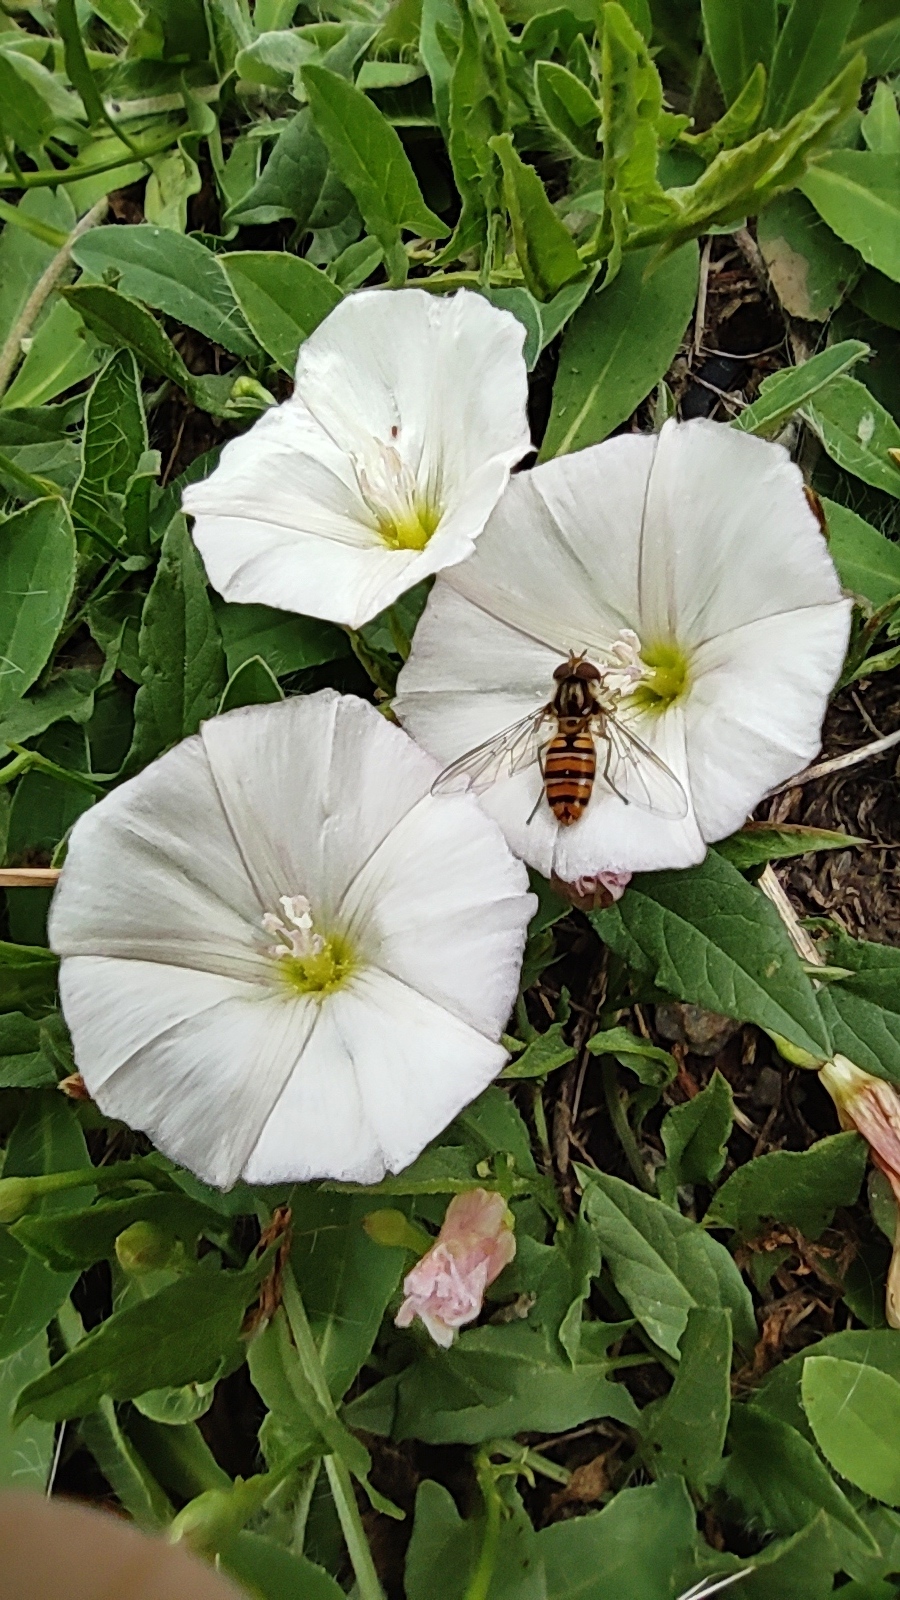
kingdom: Animalia
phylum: Arthropoda
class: Insecta
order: Diptera
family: Syrphidae
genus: Episyrphus
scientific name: Episyrphus balteatus
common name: Marmalade hoverfly
